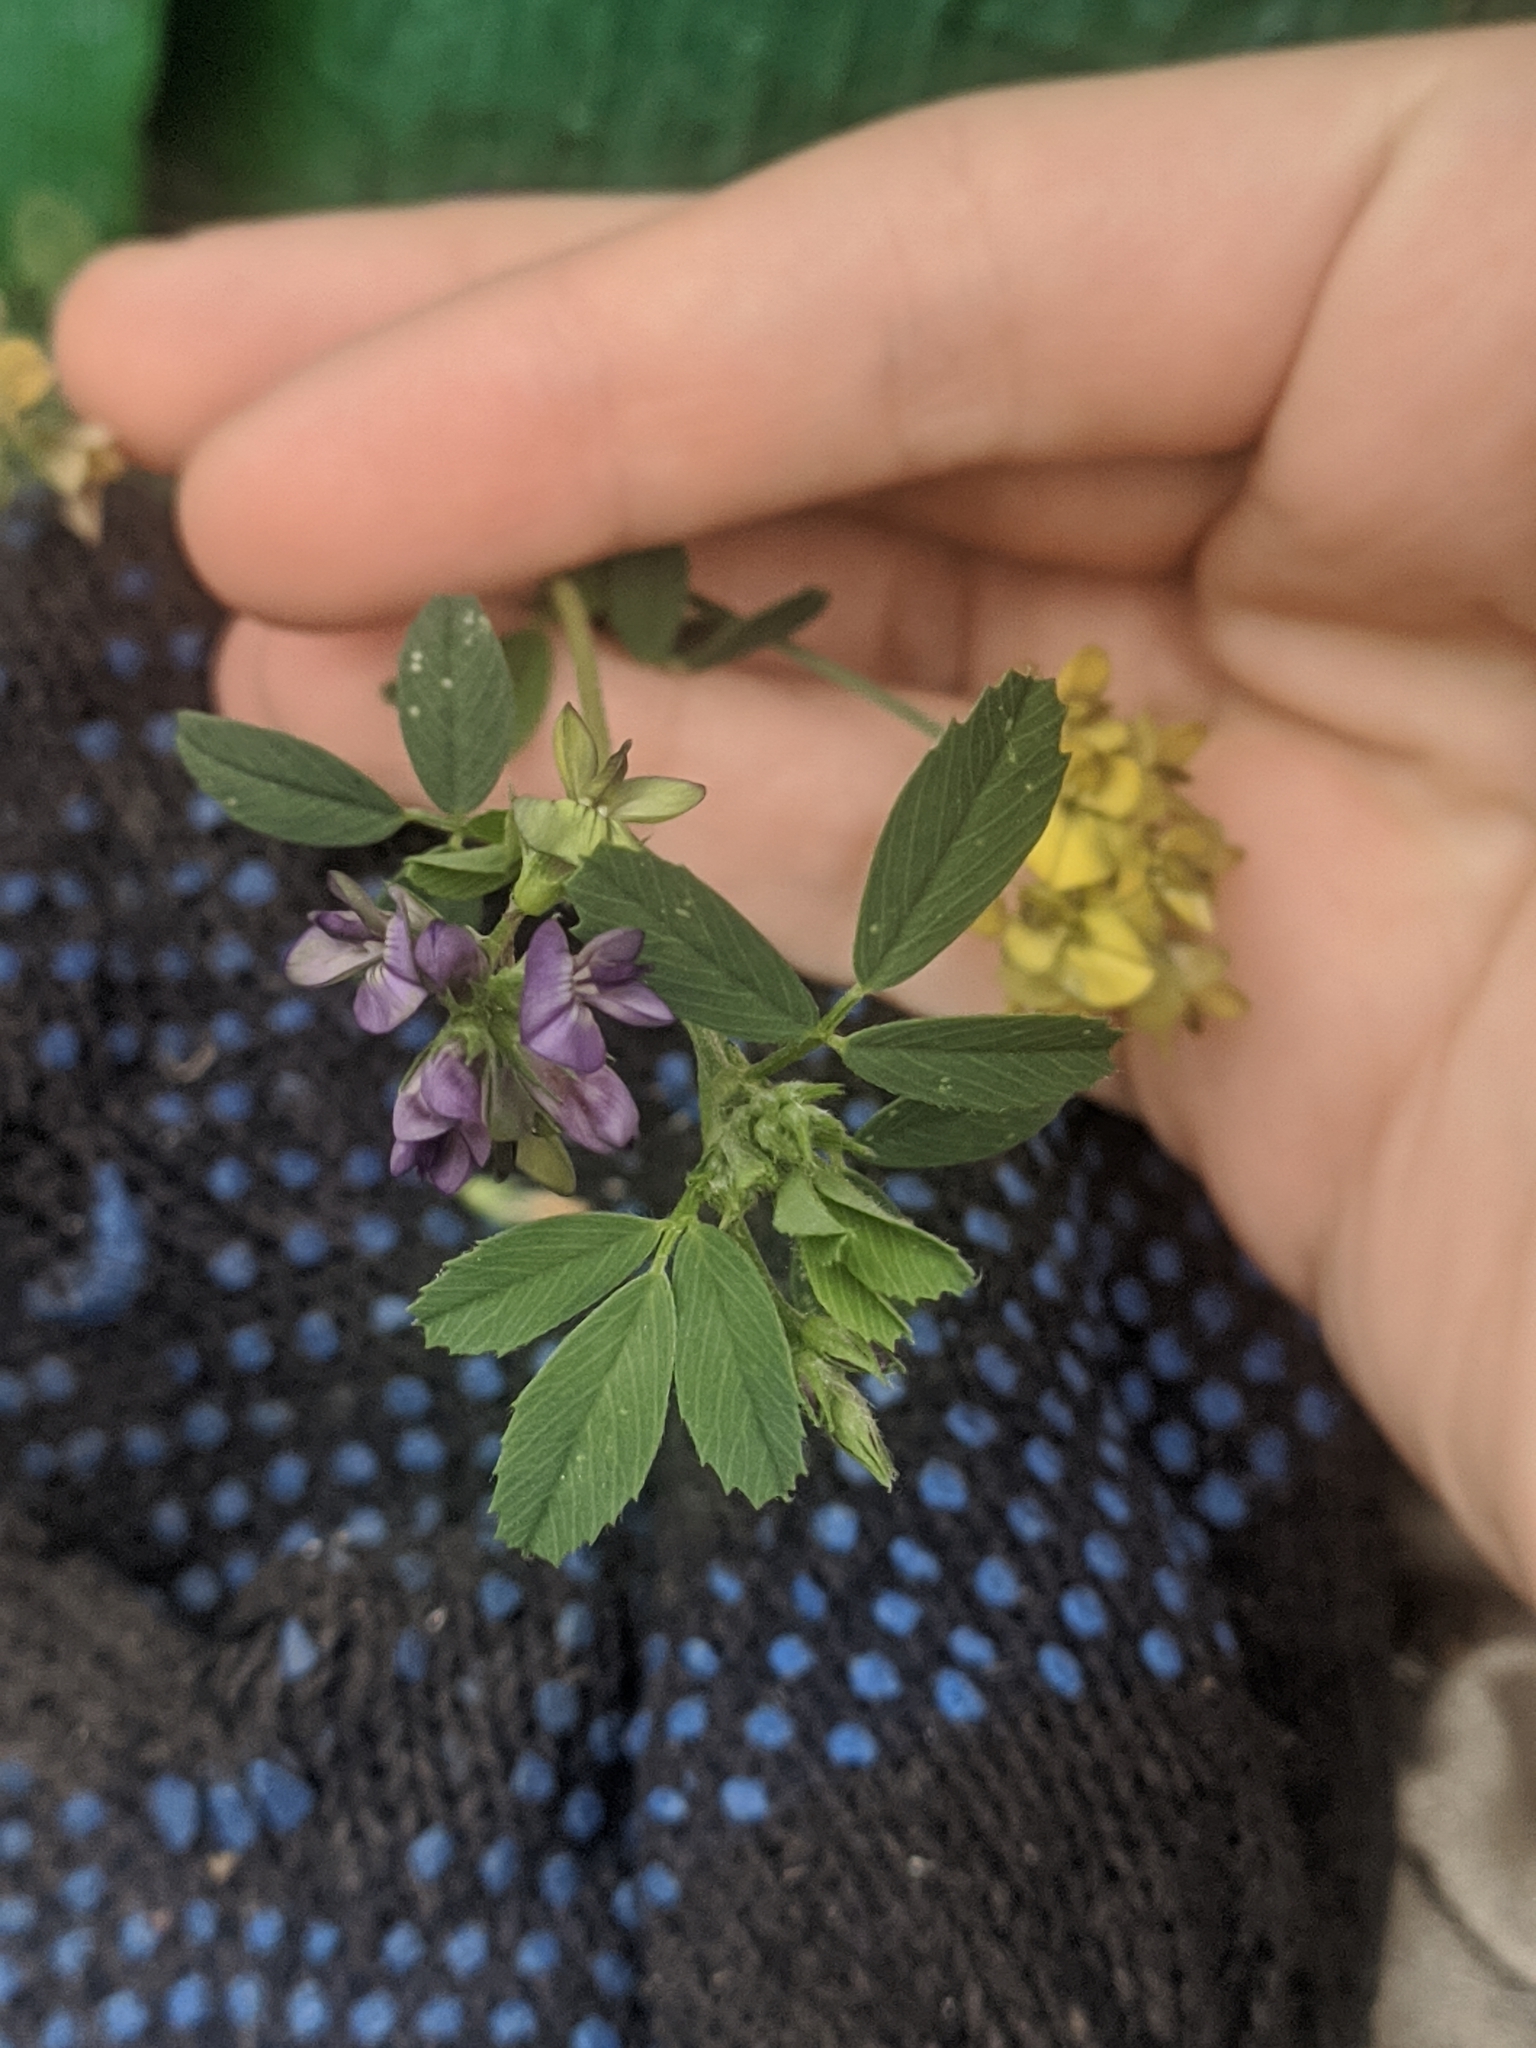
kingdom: Plantae
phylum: Tracheophyta
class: Magnoliopsida
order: Fabales
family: Fabaceae
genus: Medicago
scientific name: Medicago varia
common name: Sand lucerne
